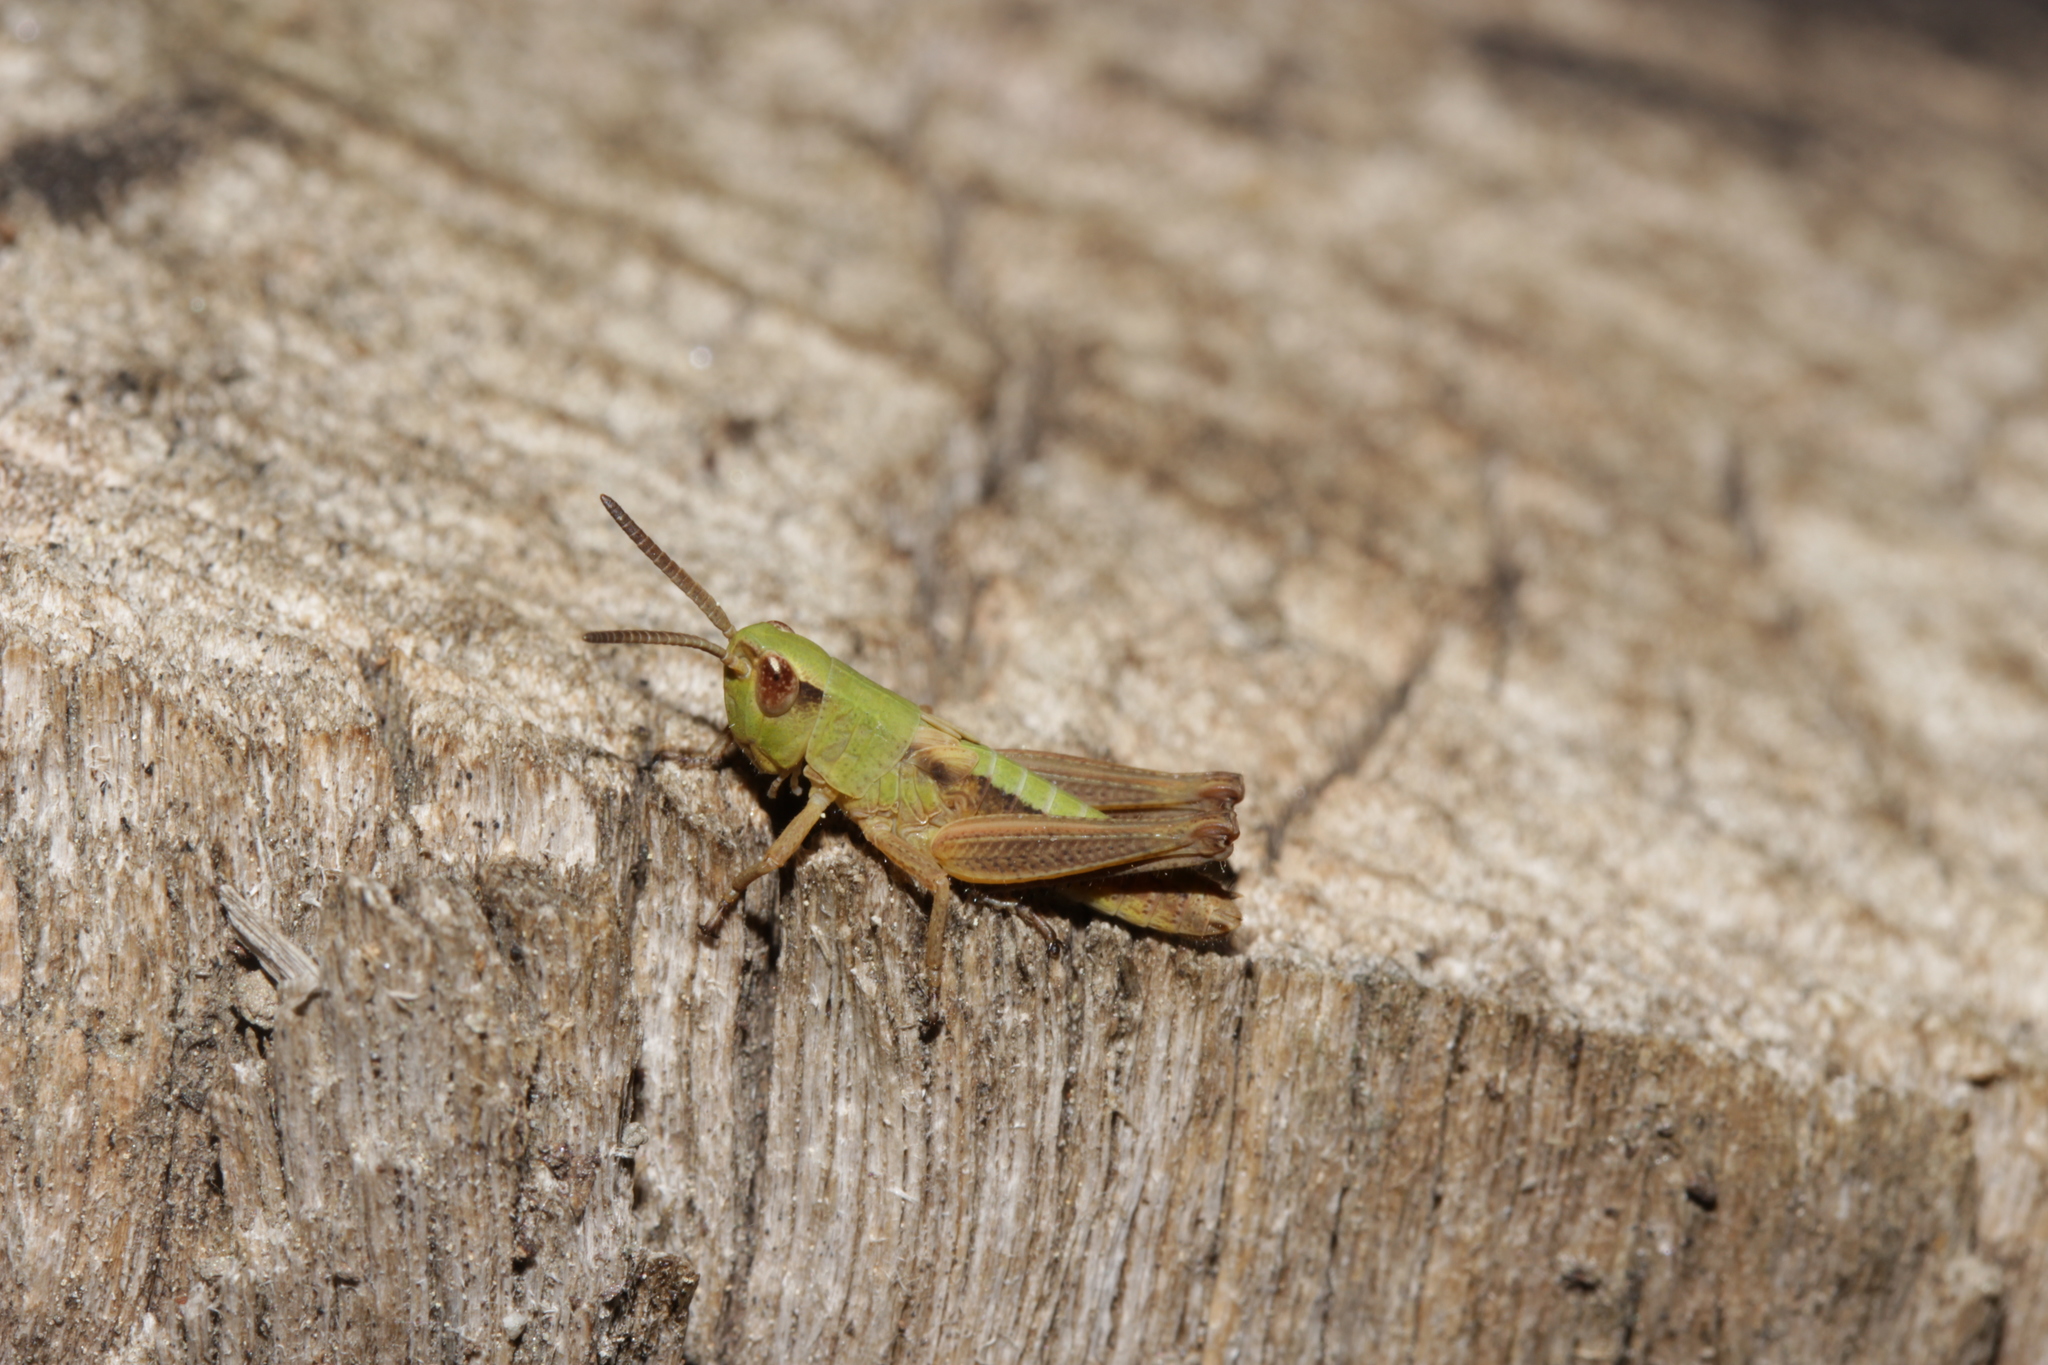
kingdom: Animalia
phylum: Arthropoda
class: Insecta
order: Orthoptera
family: Acrididae
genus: Pseudochorthippus
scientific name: Pseudochorthippus parallelus
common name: Meadow grasshopper
